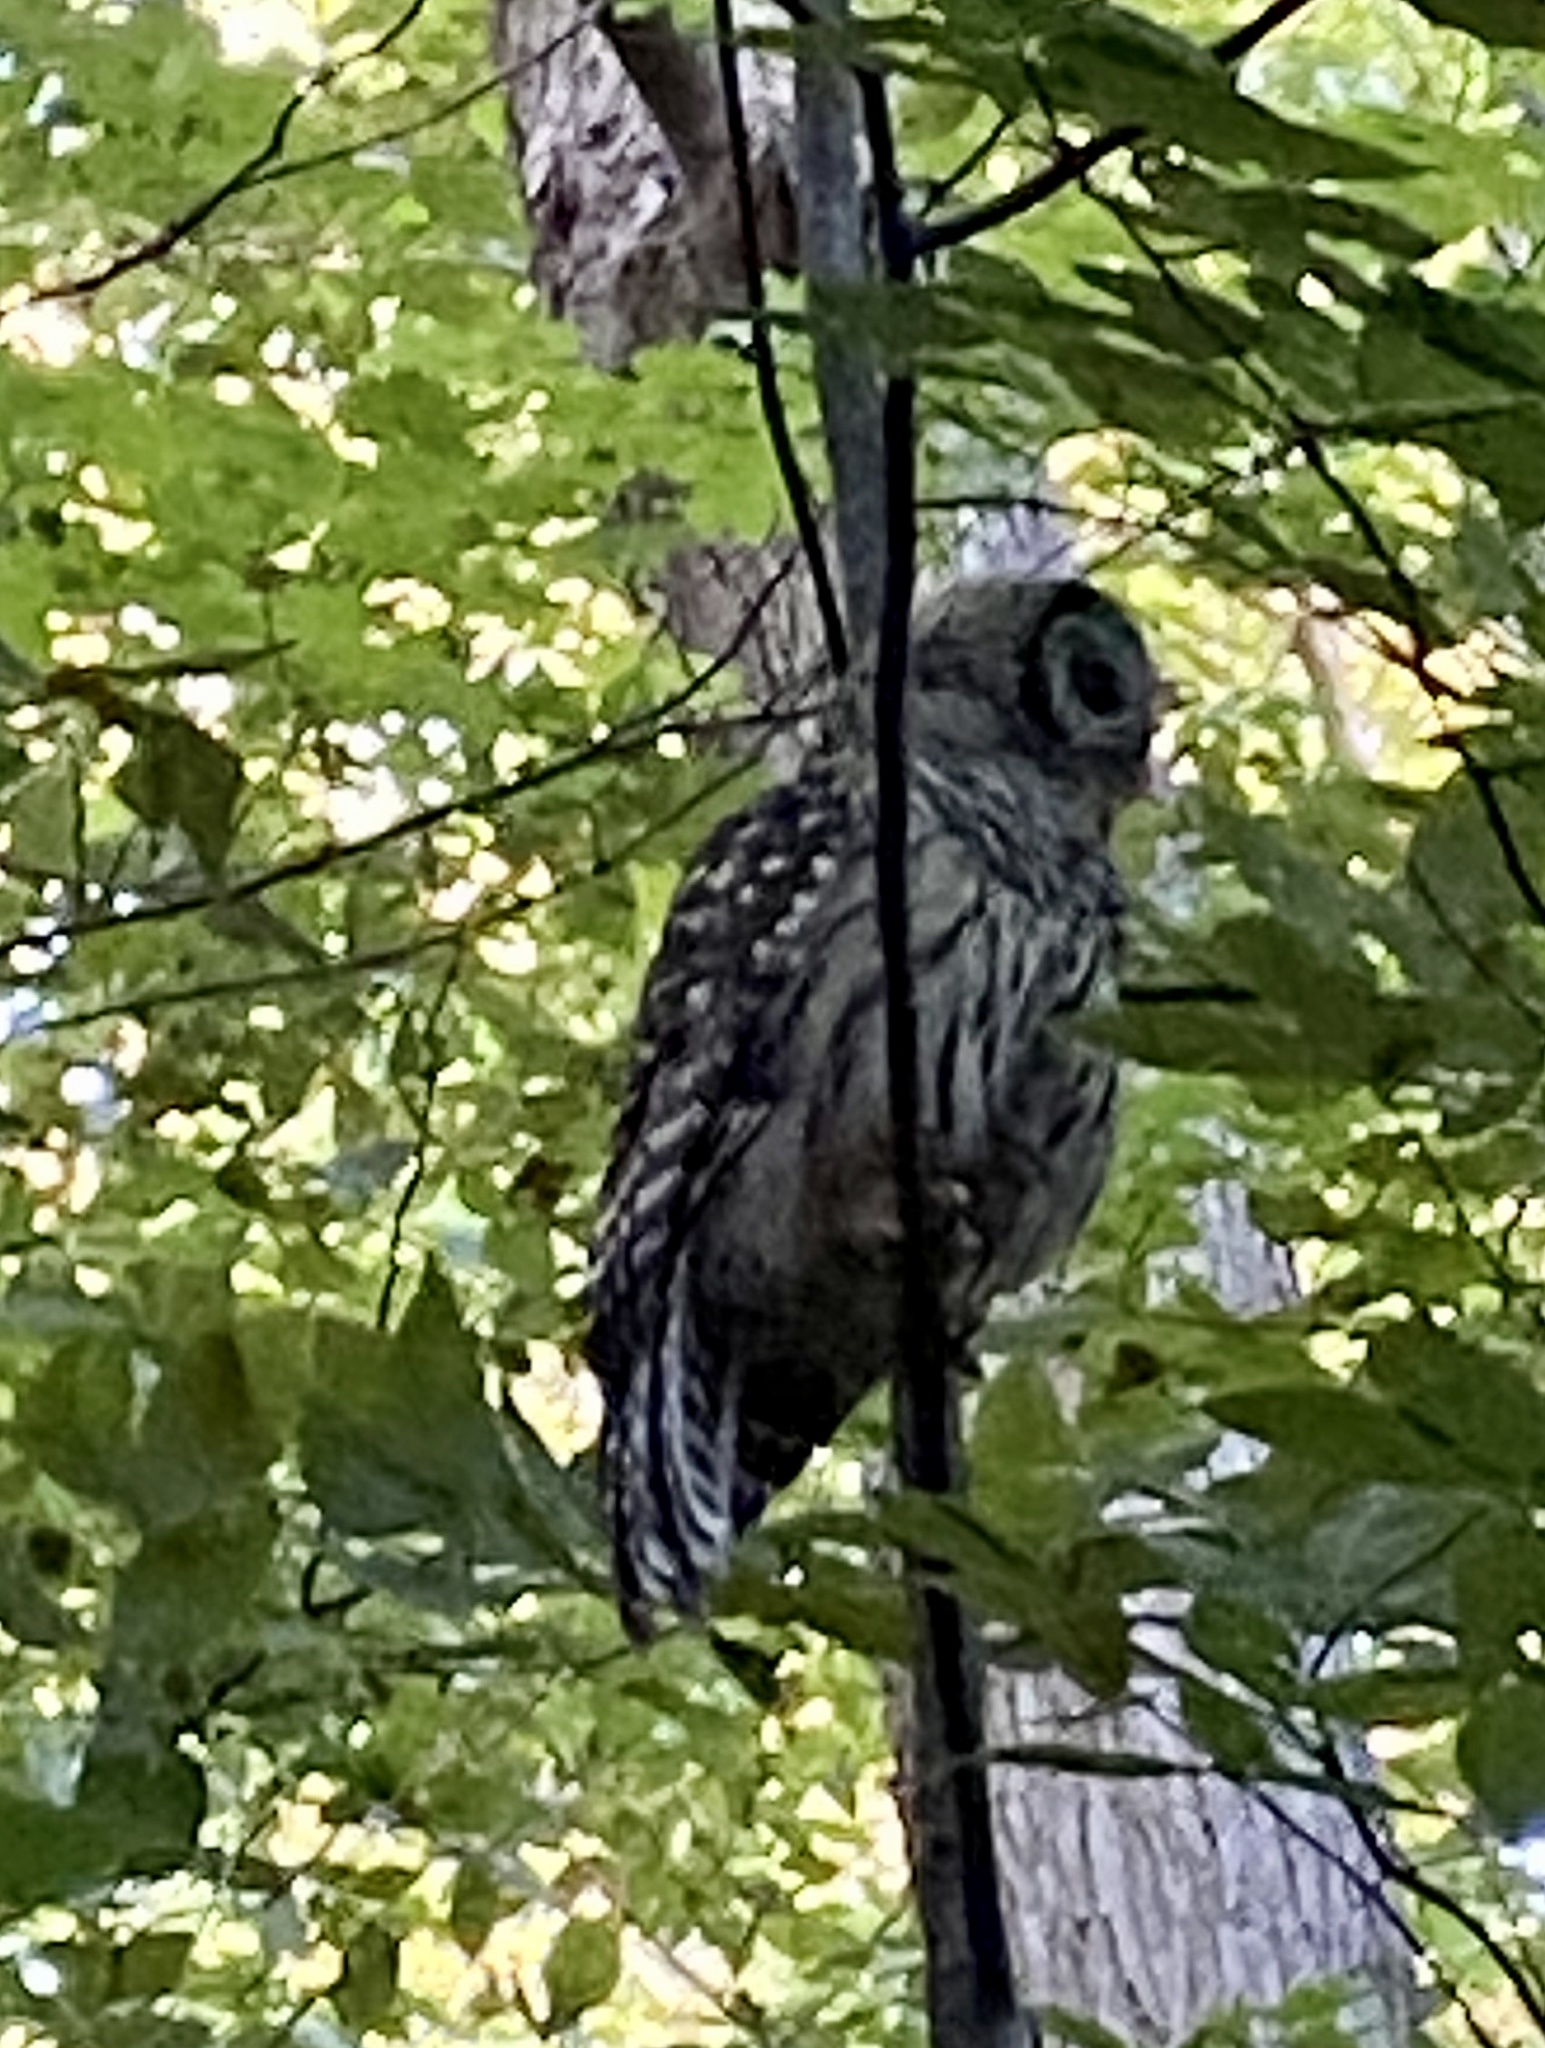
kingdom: Animalia
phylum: Chordata
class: Aves
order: Strigiformes
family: Strigidae
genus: Strix
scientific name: Strix varia
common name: Barred owl
